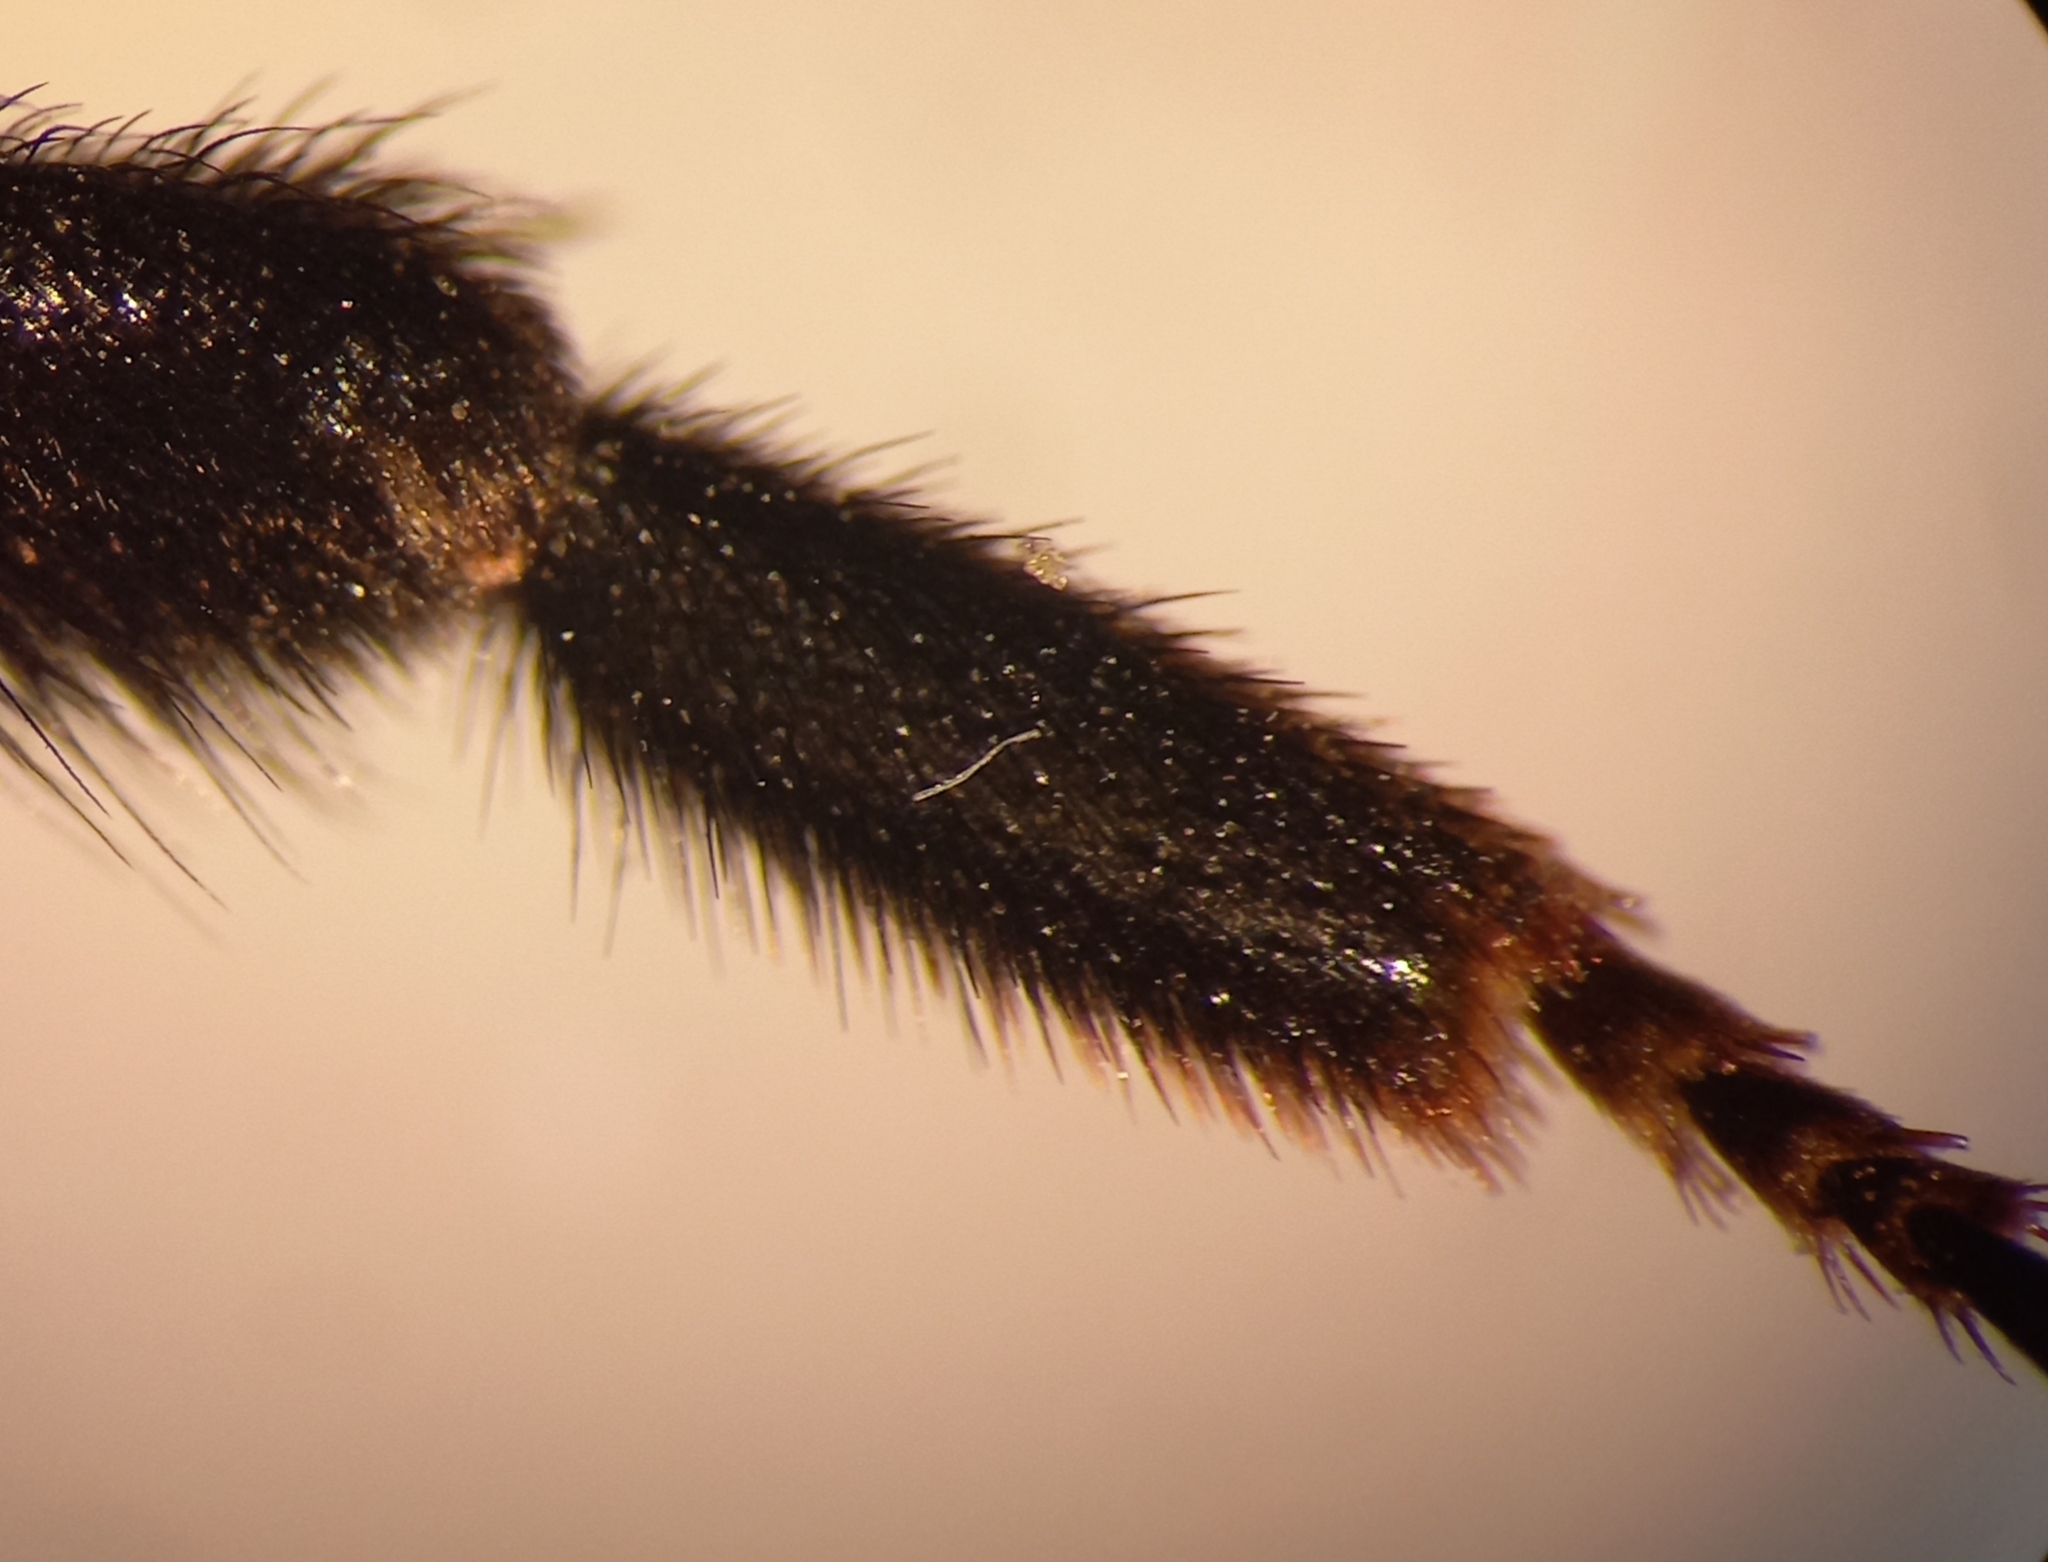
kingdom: Animalia
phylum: Arthropoda
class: Insecta
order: Hymenoptera
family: Apidae
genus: Bombus
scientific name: Bombus lapidarius
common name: Large red-tailed humble-bee
